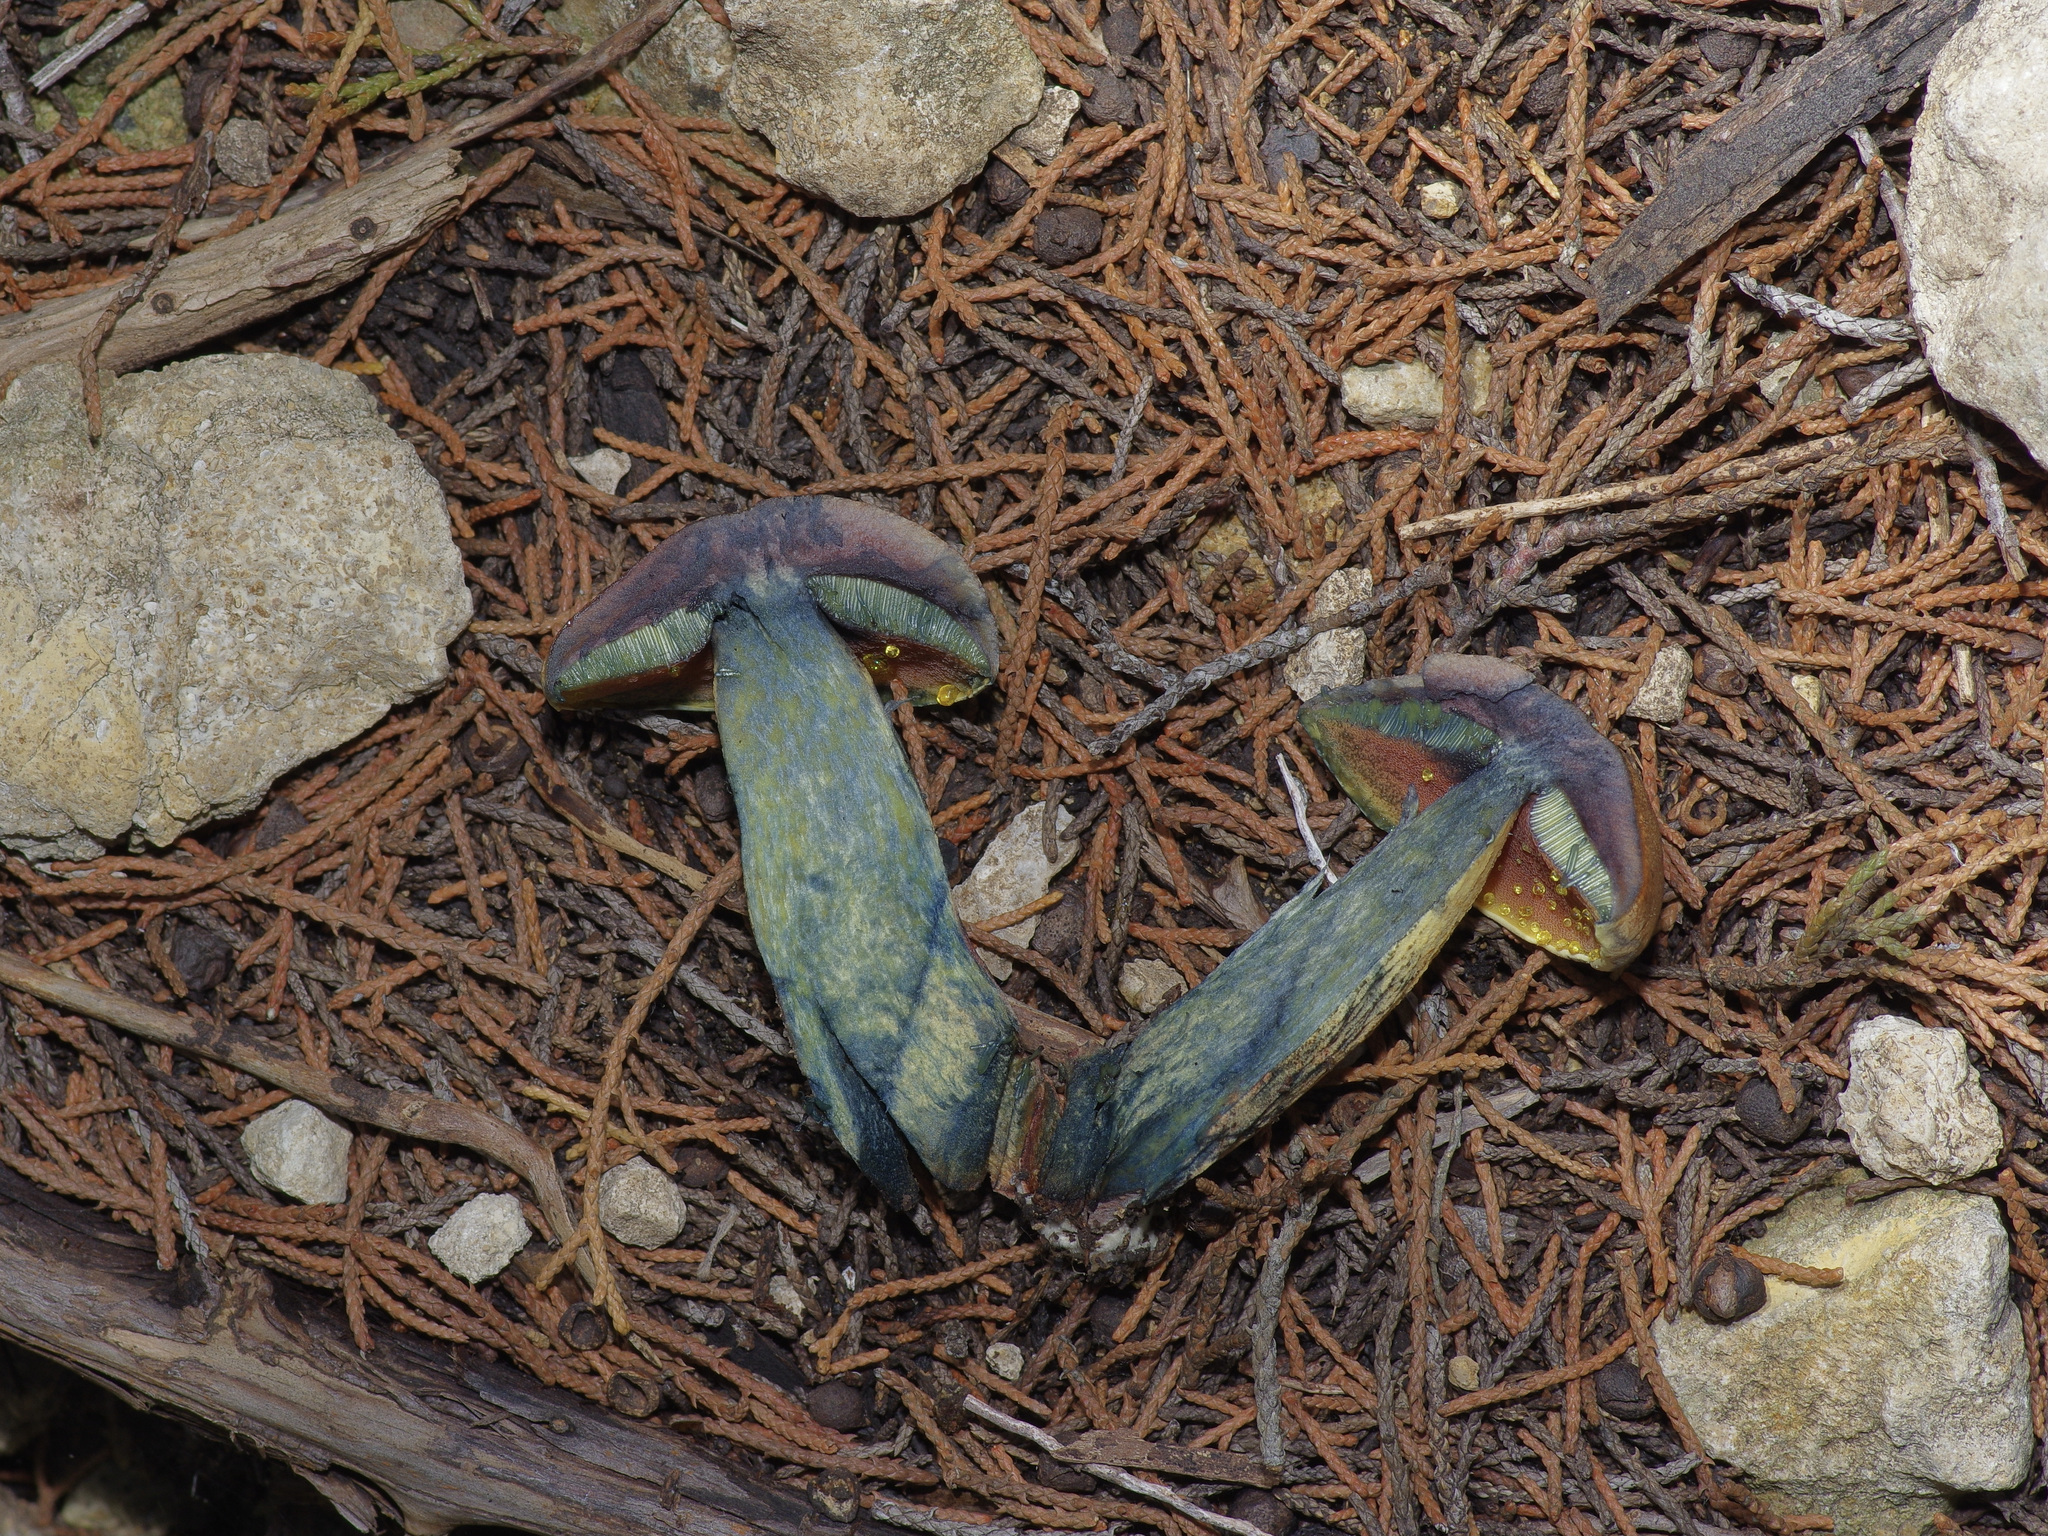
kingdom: Fungi
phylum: Basidiomycota
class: Agaricomycetes
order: Boletales
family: Boletaceae
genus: Suillellus
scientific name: Suillellus luridus
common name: Lurid bolete
